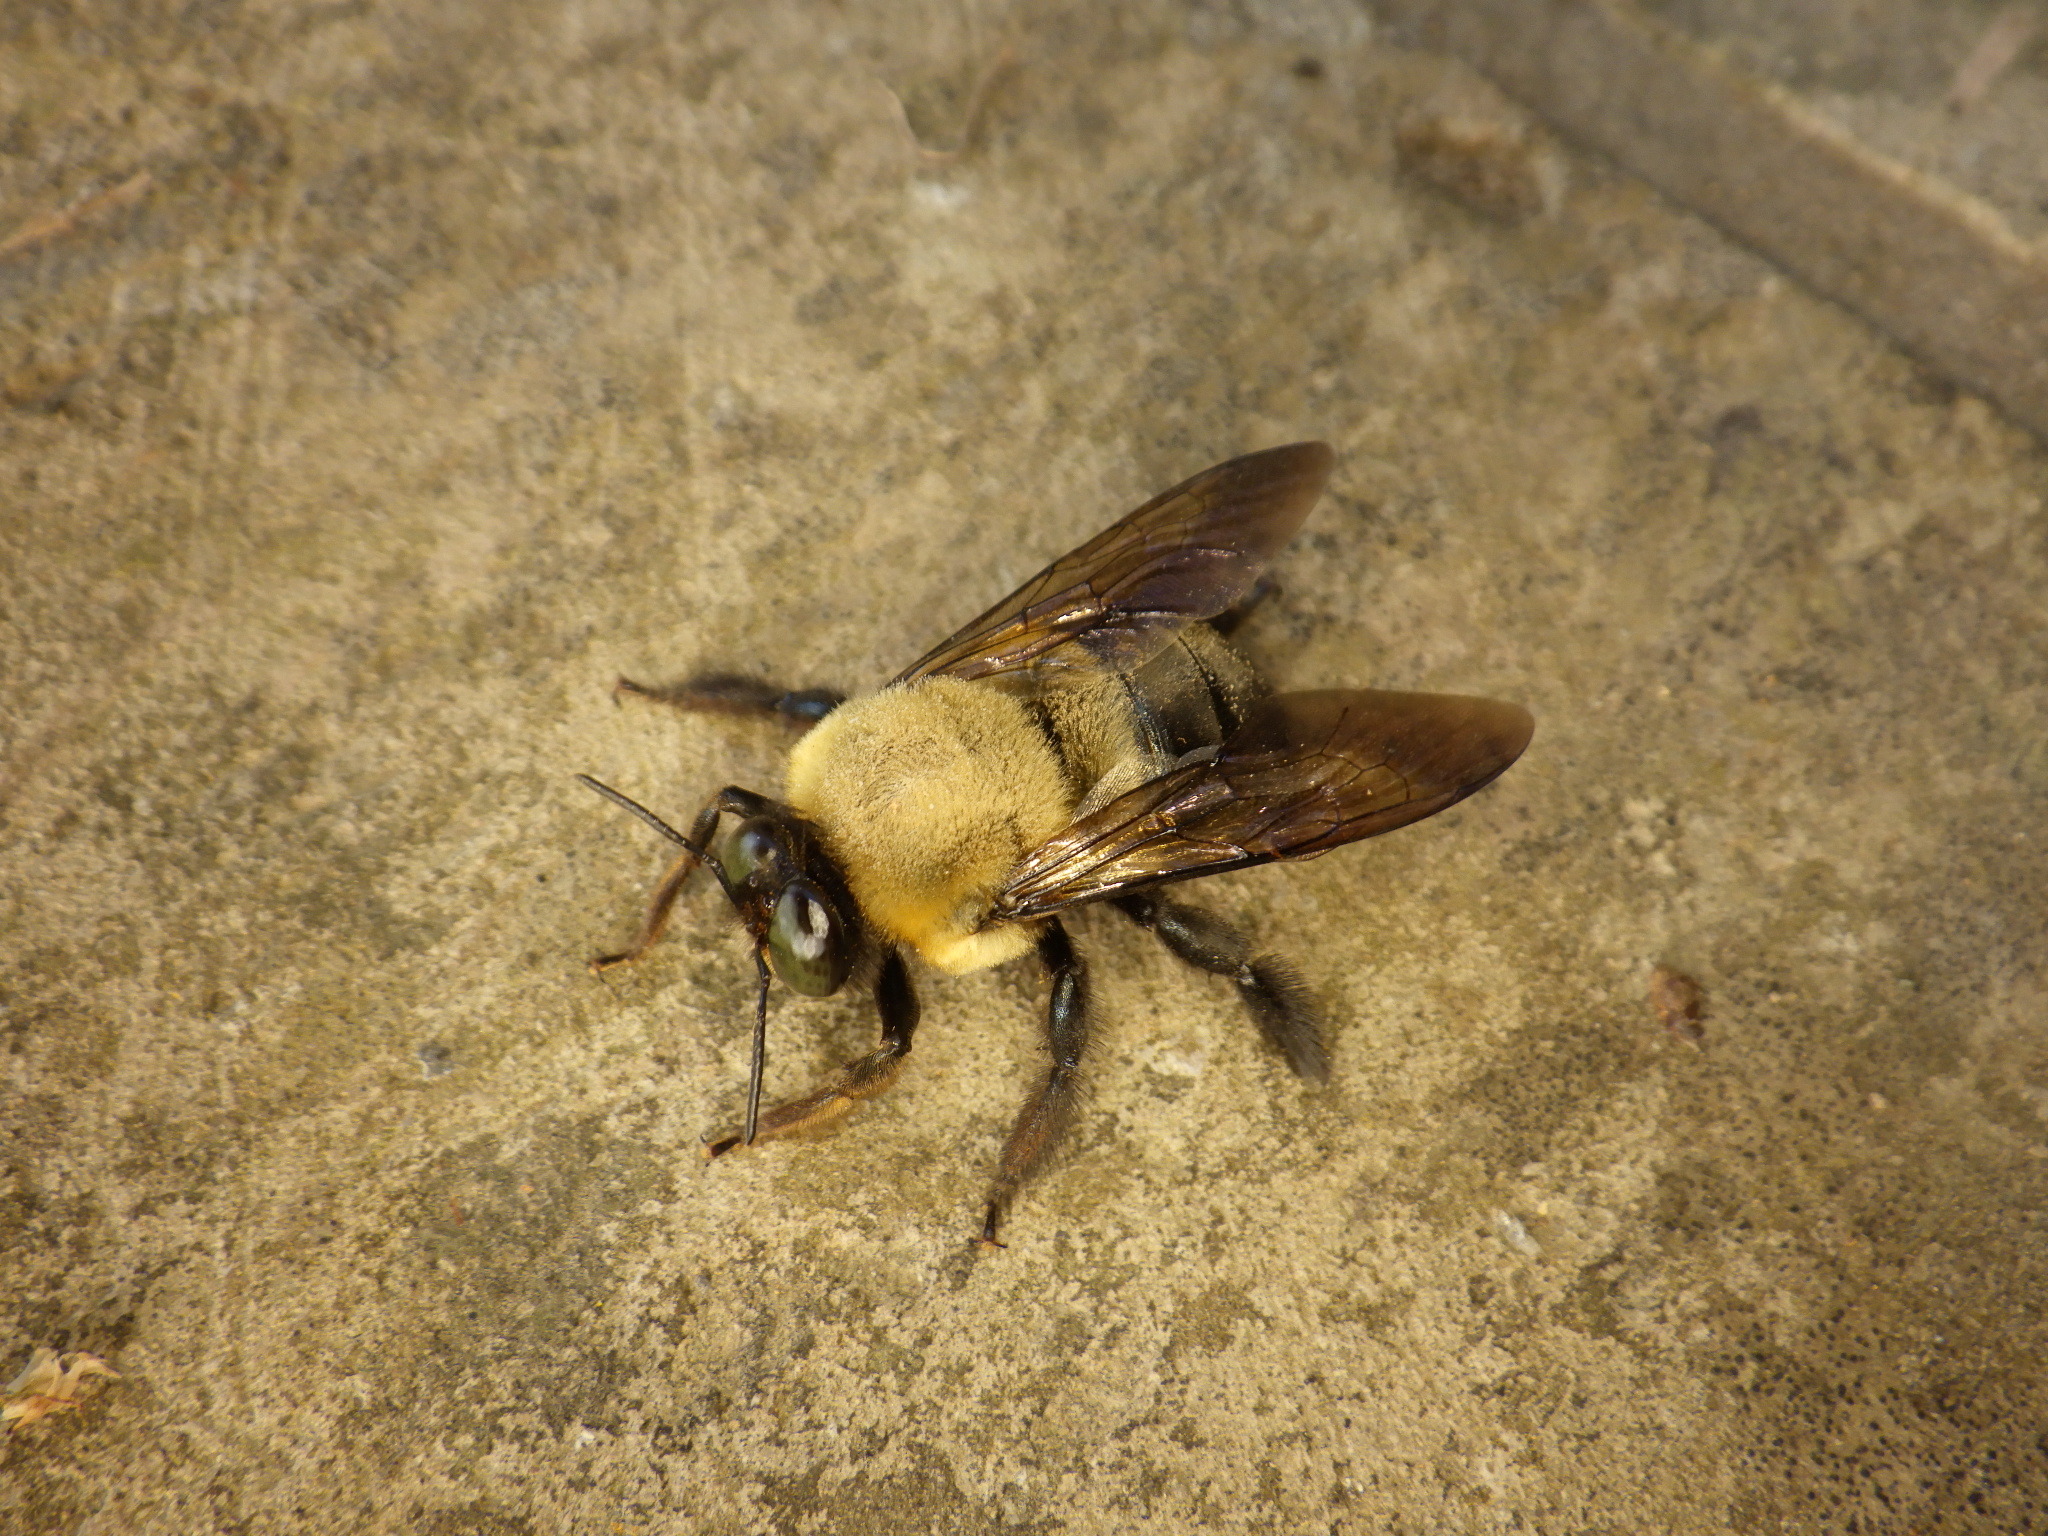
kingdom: Animalia
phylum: Arthropoda
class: Insecta
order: Hymenoptera
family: Apidae
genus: Xylocopa
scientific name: Xylocopa virginica
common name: Carpenter bee
